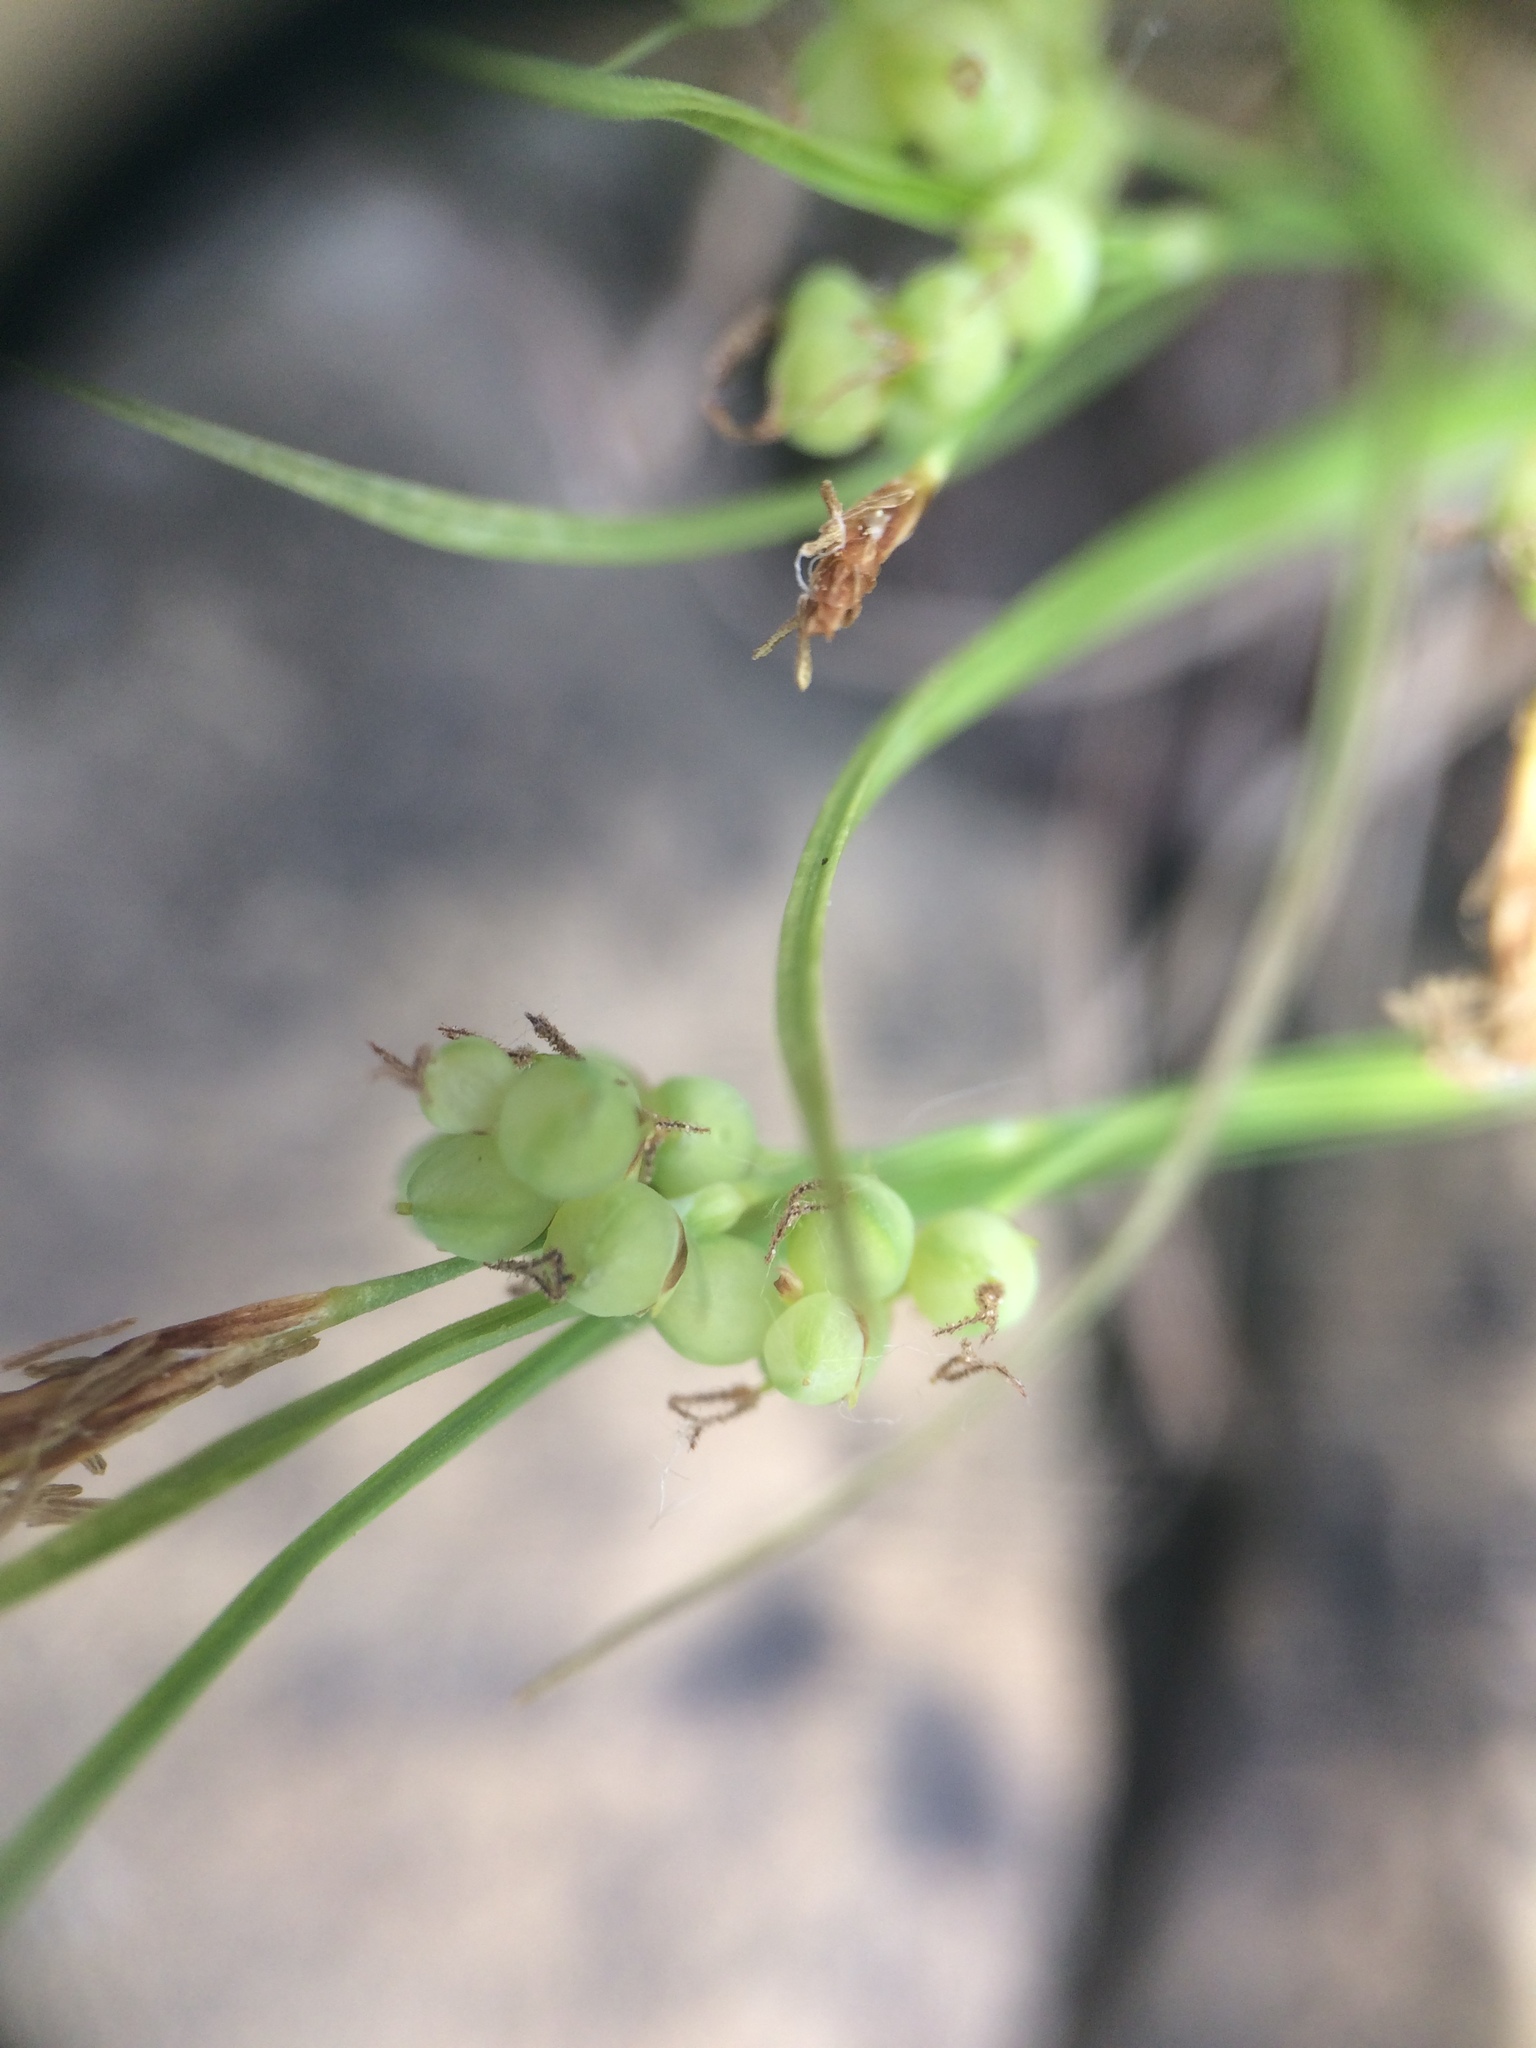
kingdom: Plantae
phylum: Tracheophyta
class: Liliopsida
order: Poales
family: Cyperaceae
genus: Carex
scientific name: Carex aurea
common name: Golden sedge
